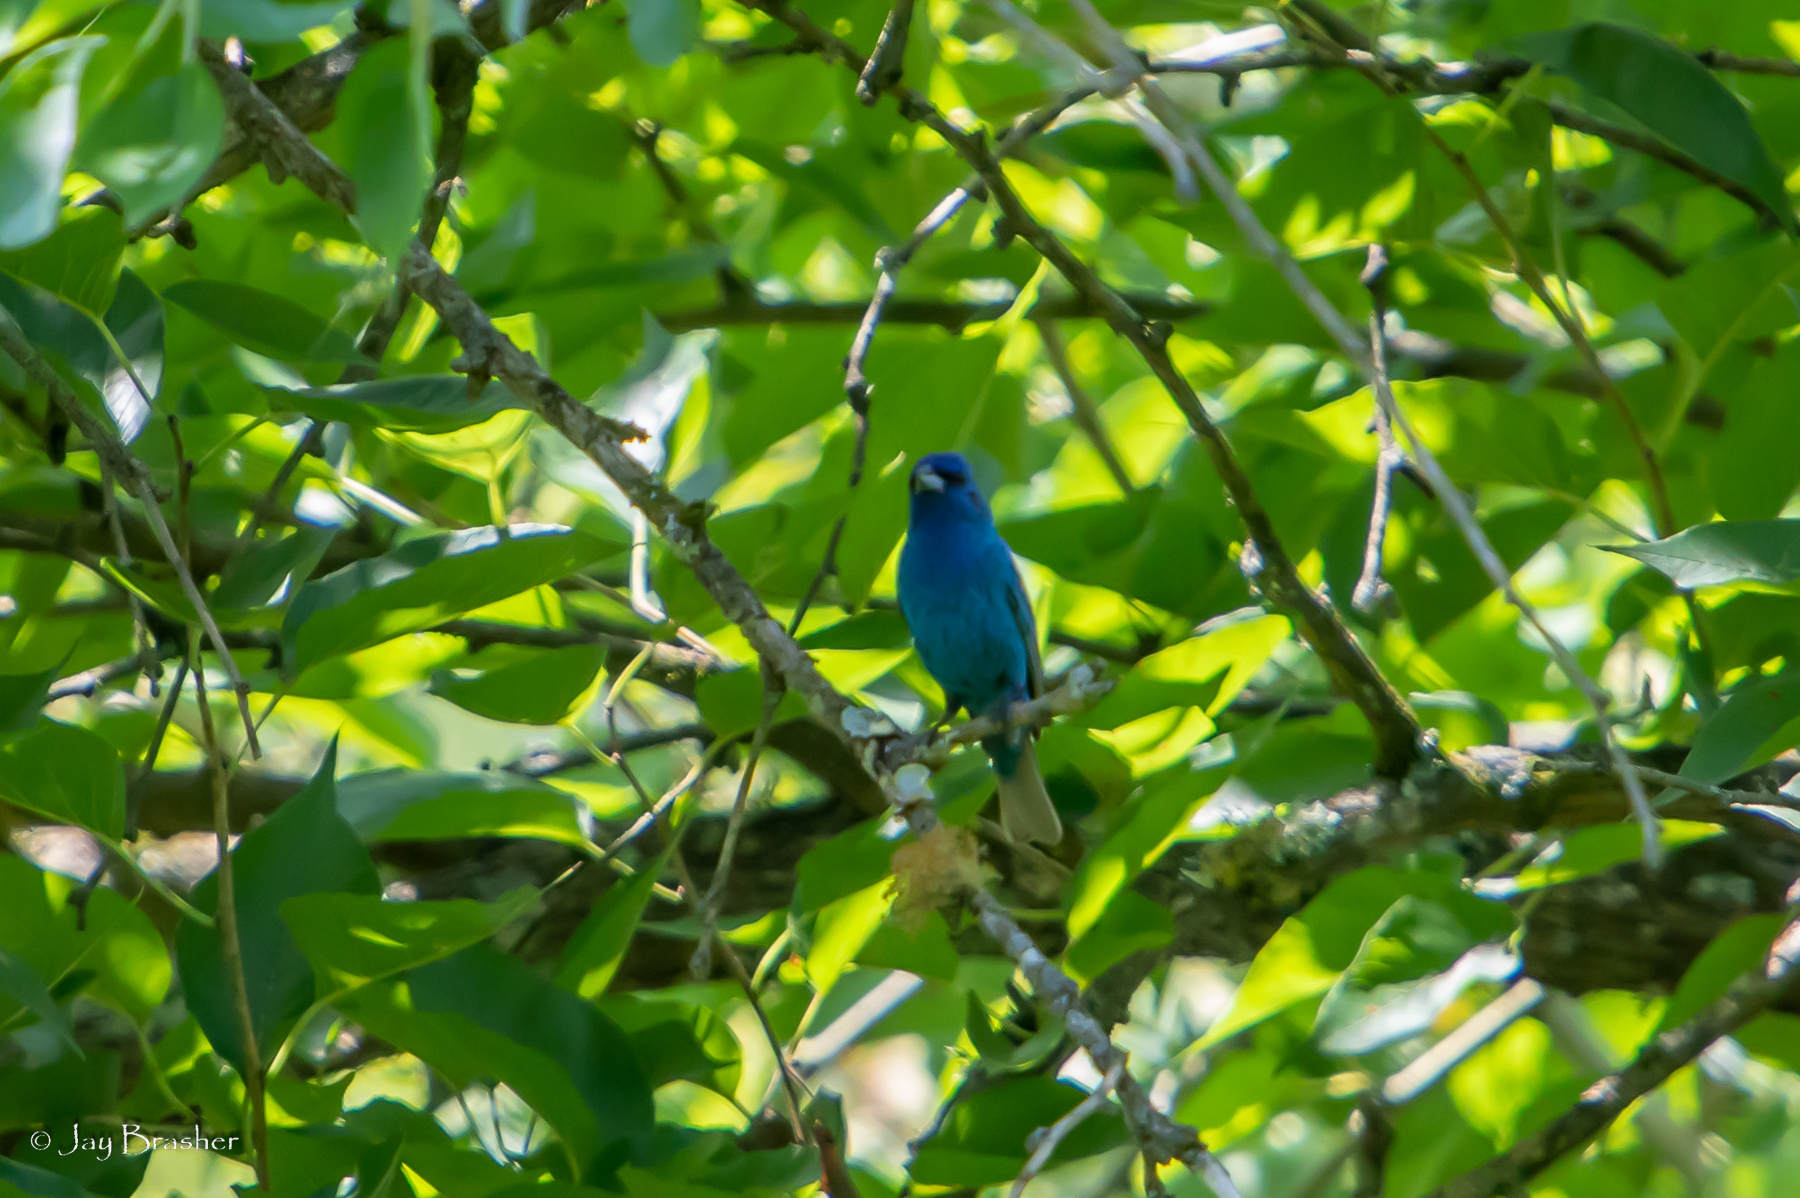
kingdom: Animalia
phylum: Chordata
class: Aves
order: Passeriformes
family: Cardinalidae
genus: Passerina
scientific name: Passerina cyanea
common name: Indigo bunting
